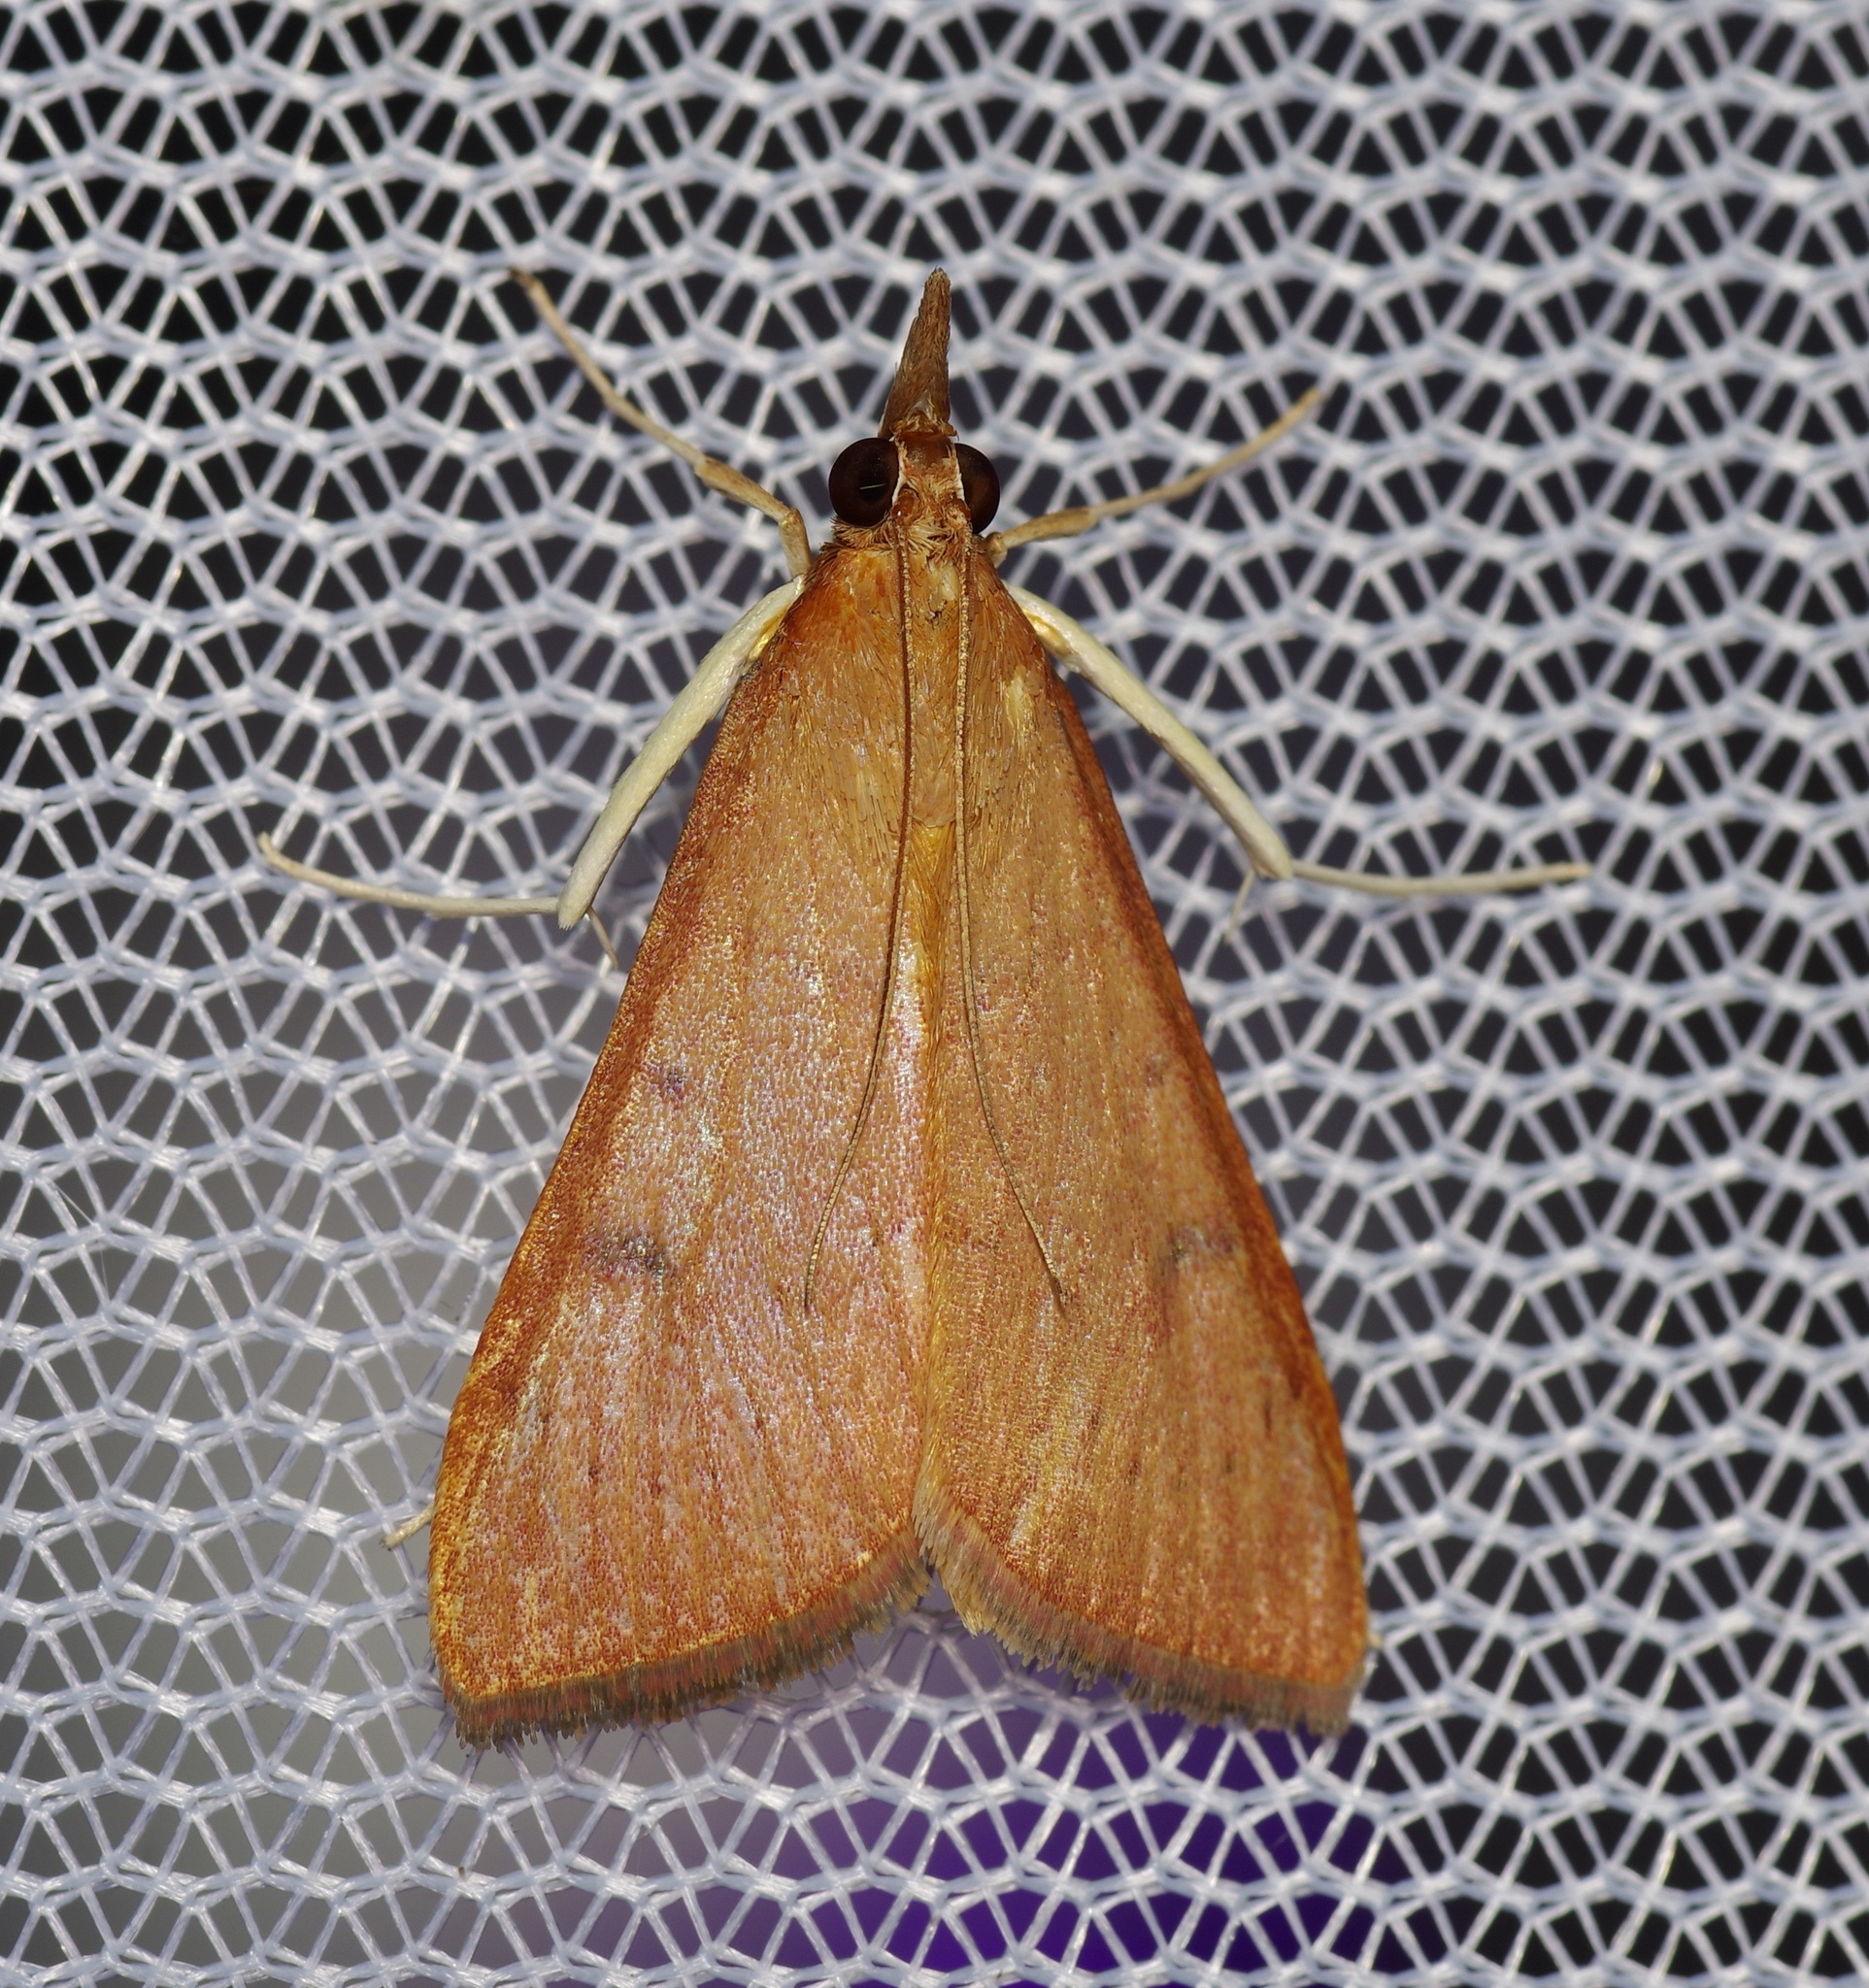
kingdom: Animalia
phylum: Arthropoda
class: Insecta
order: Lepidoptera
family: Crambidae
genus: Uresiphita
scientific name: Uresiphita reversalis
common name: Genista broom moth
